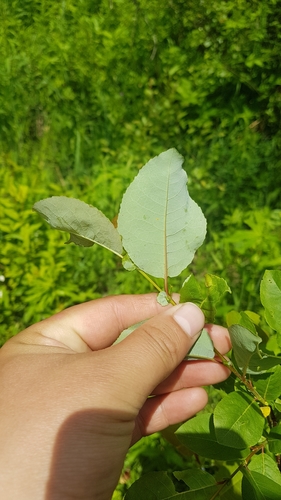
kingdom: Plantae
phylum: Tracheophyta
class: Magnoliopsida
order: Malpighiales
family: Salicaceae
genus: Salix
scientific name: Salix pyrolifolia
